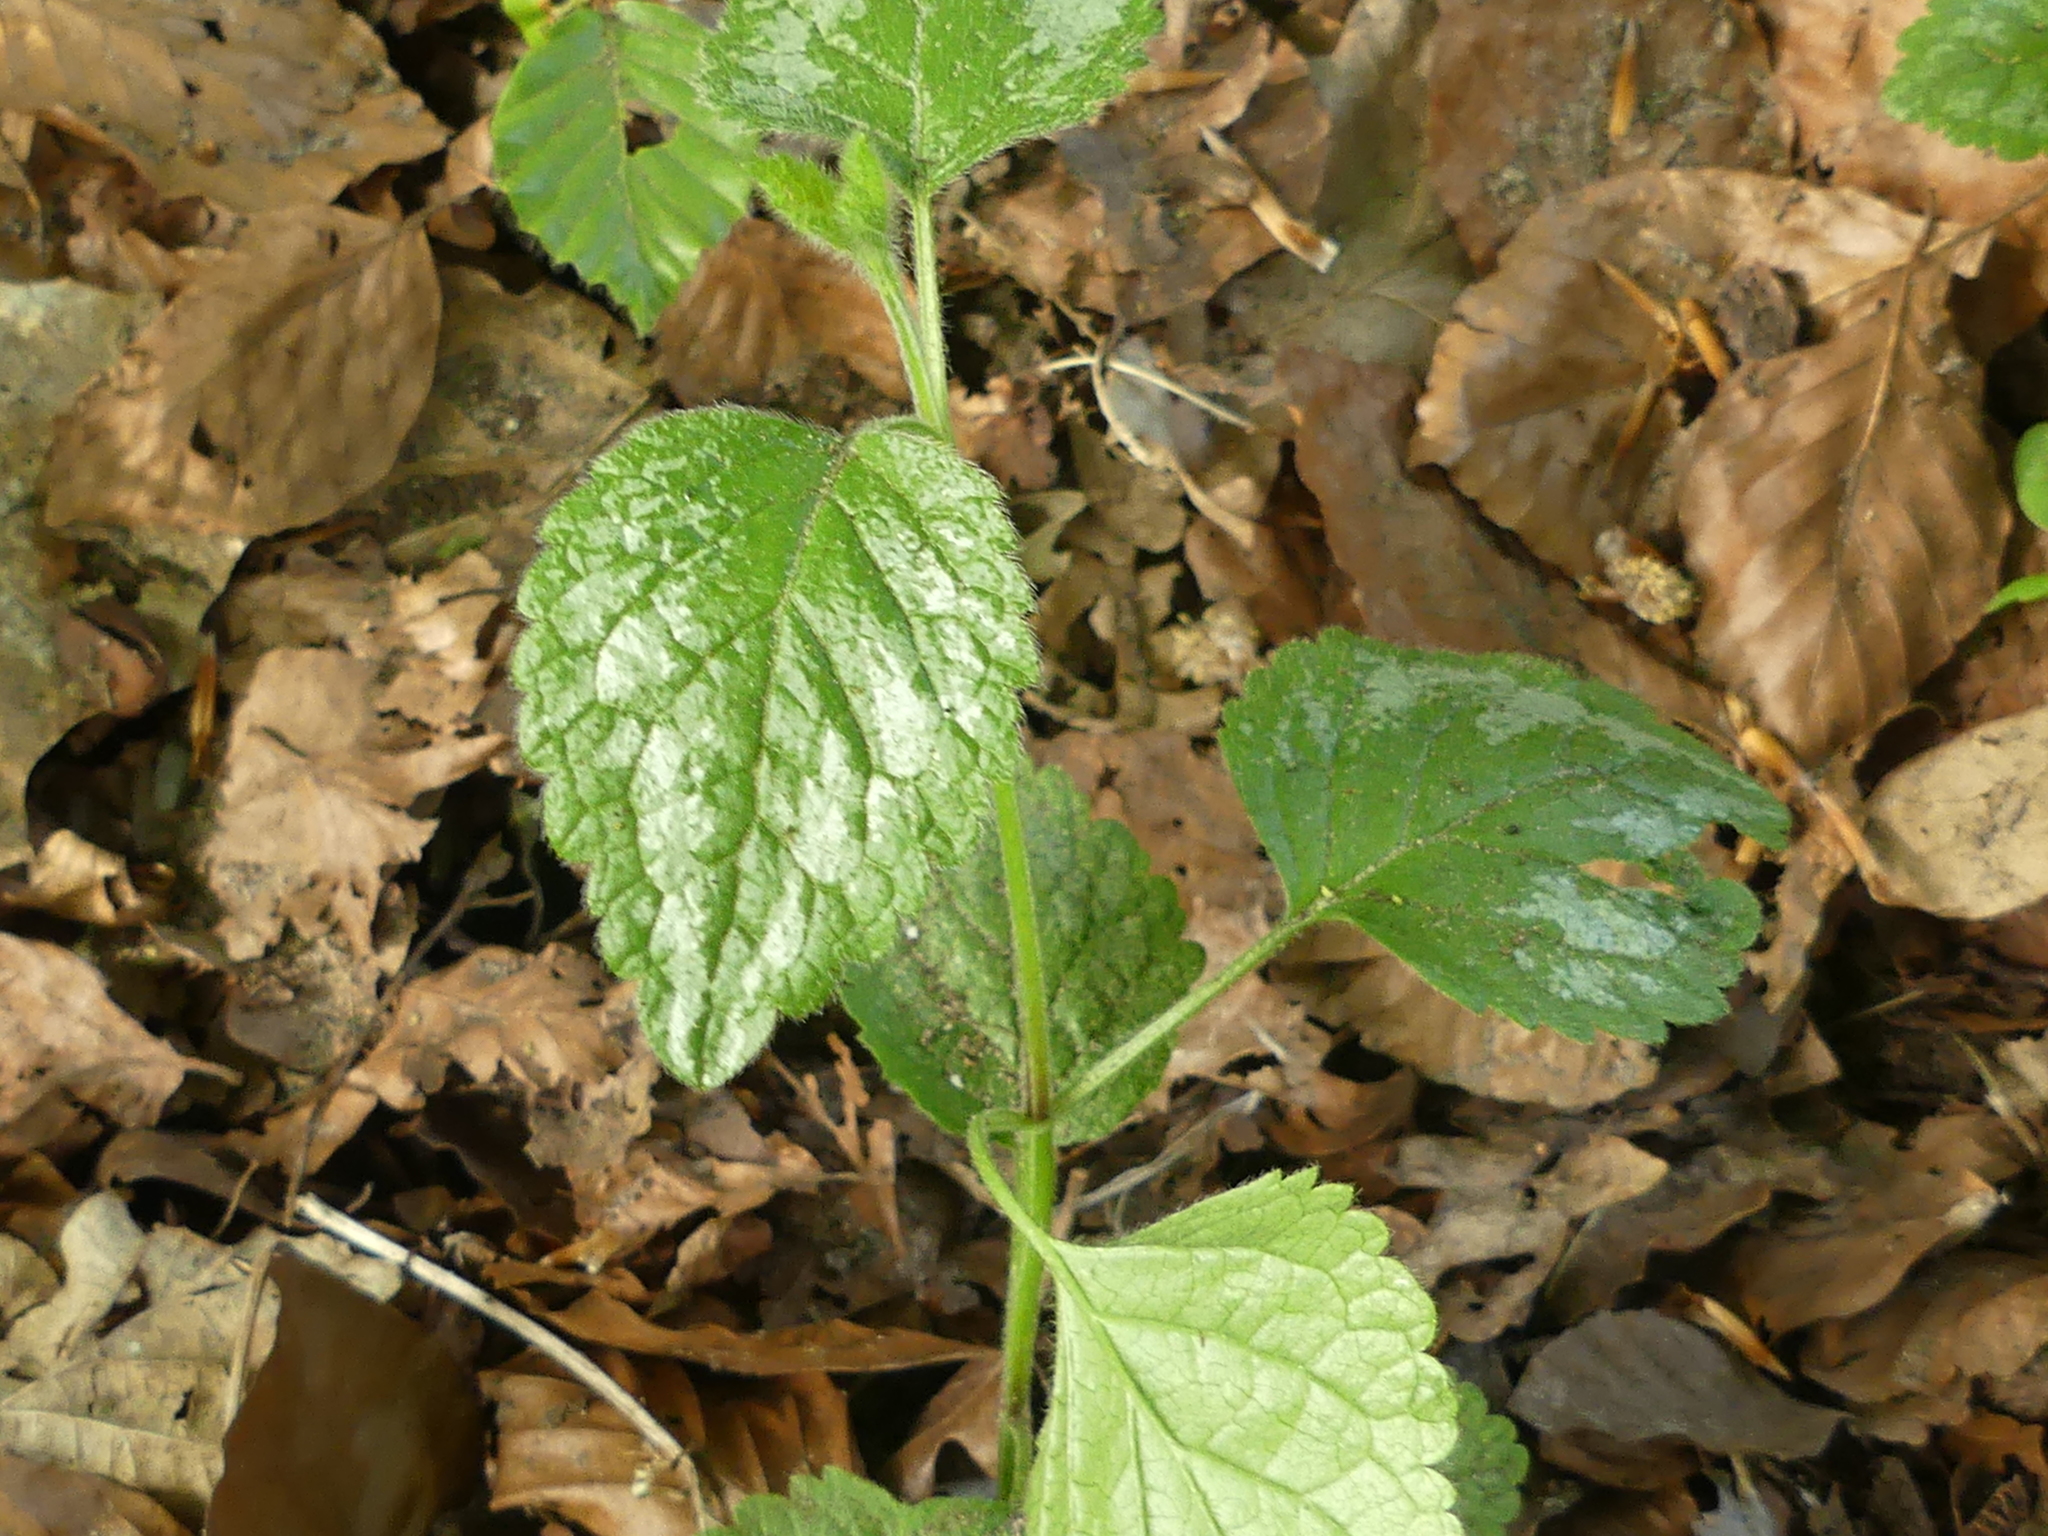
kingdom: Plantae
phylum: Tracheophyta
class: Magnoliopsida
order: Lamiales
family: Lamiaceae
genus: Lamium
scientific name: Lamium galeobdolon
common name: Yellow archangel
